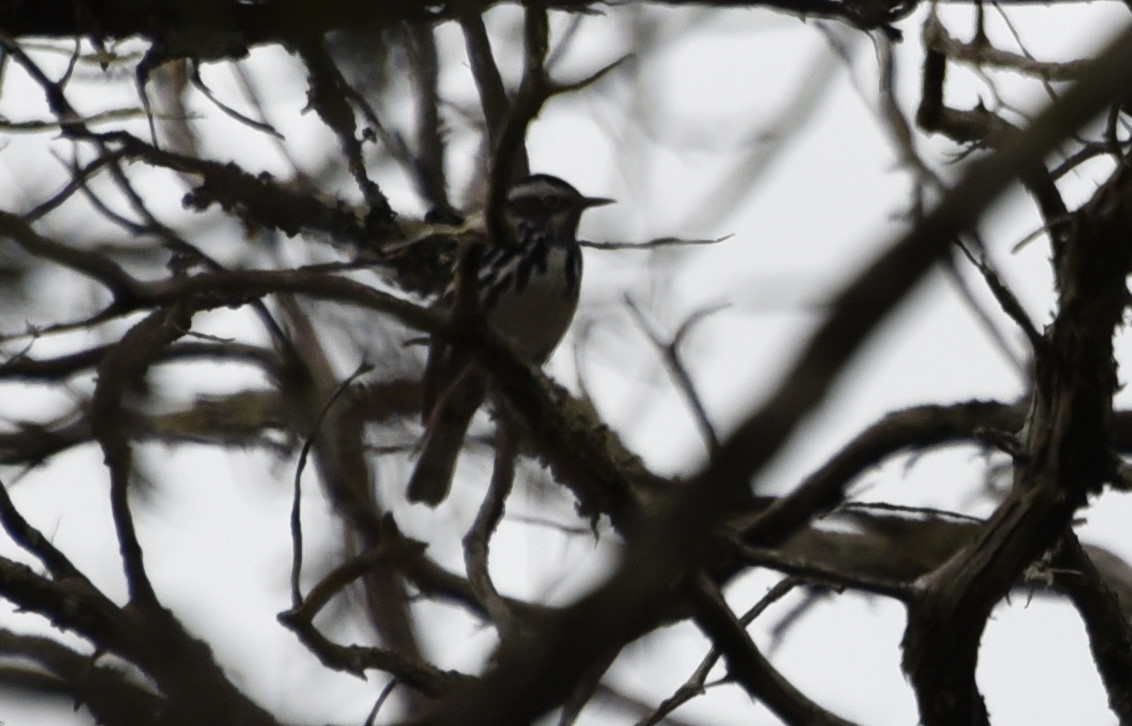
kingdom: Animalia
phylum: Chordata
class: Aves
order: Passeriformes
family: Parulidae
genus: Mniotilta
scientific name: Mniotilta varia
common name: Black-and-white warbler
